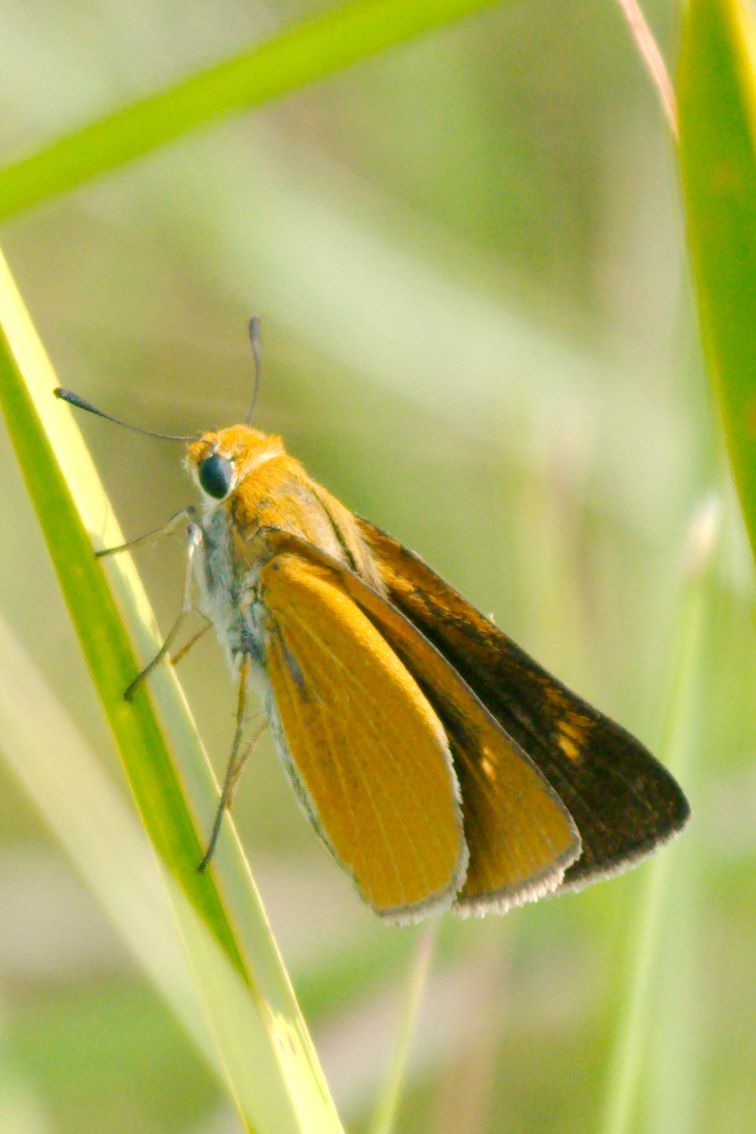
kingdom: Animalia
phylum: Arthropoda
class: Insecta
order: Lepidoptera
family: Hesperiidae
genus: Euphyes
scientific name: Euphyes arpa
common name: Palmetto skipper
